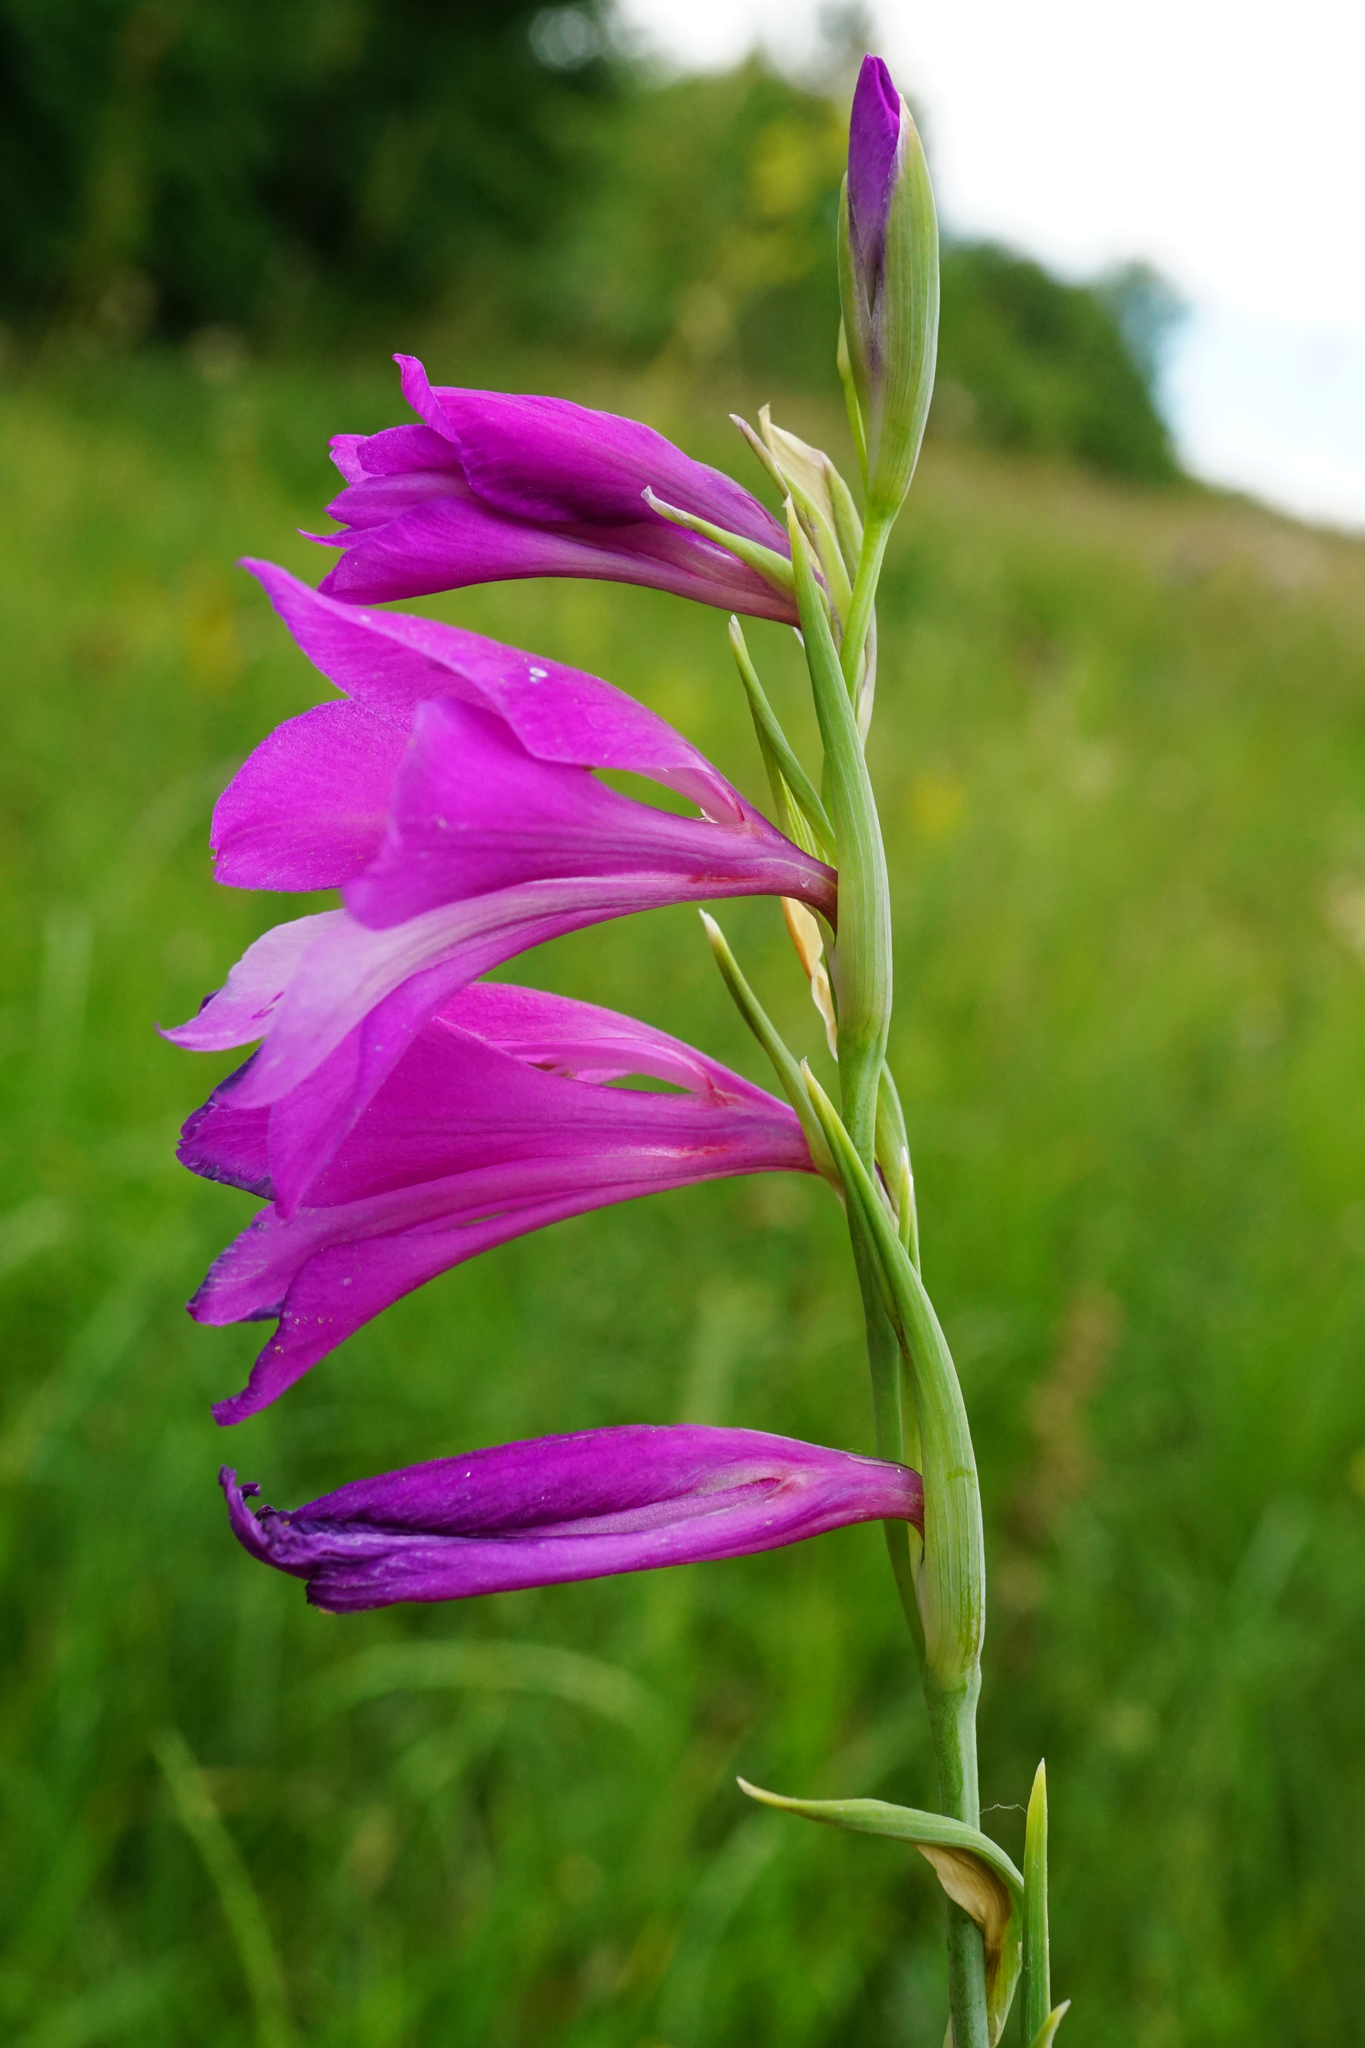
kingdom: Plantae
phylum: Tracheophyta
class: Liliopsida
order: Asparagales
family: Iridaceae
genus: Gladiolus
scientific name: Gladiolus palustris
